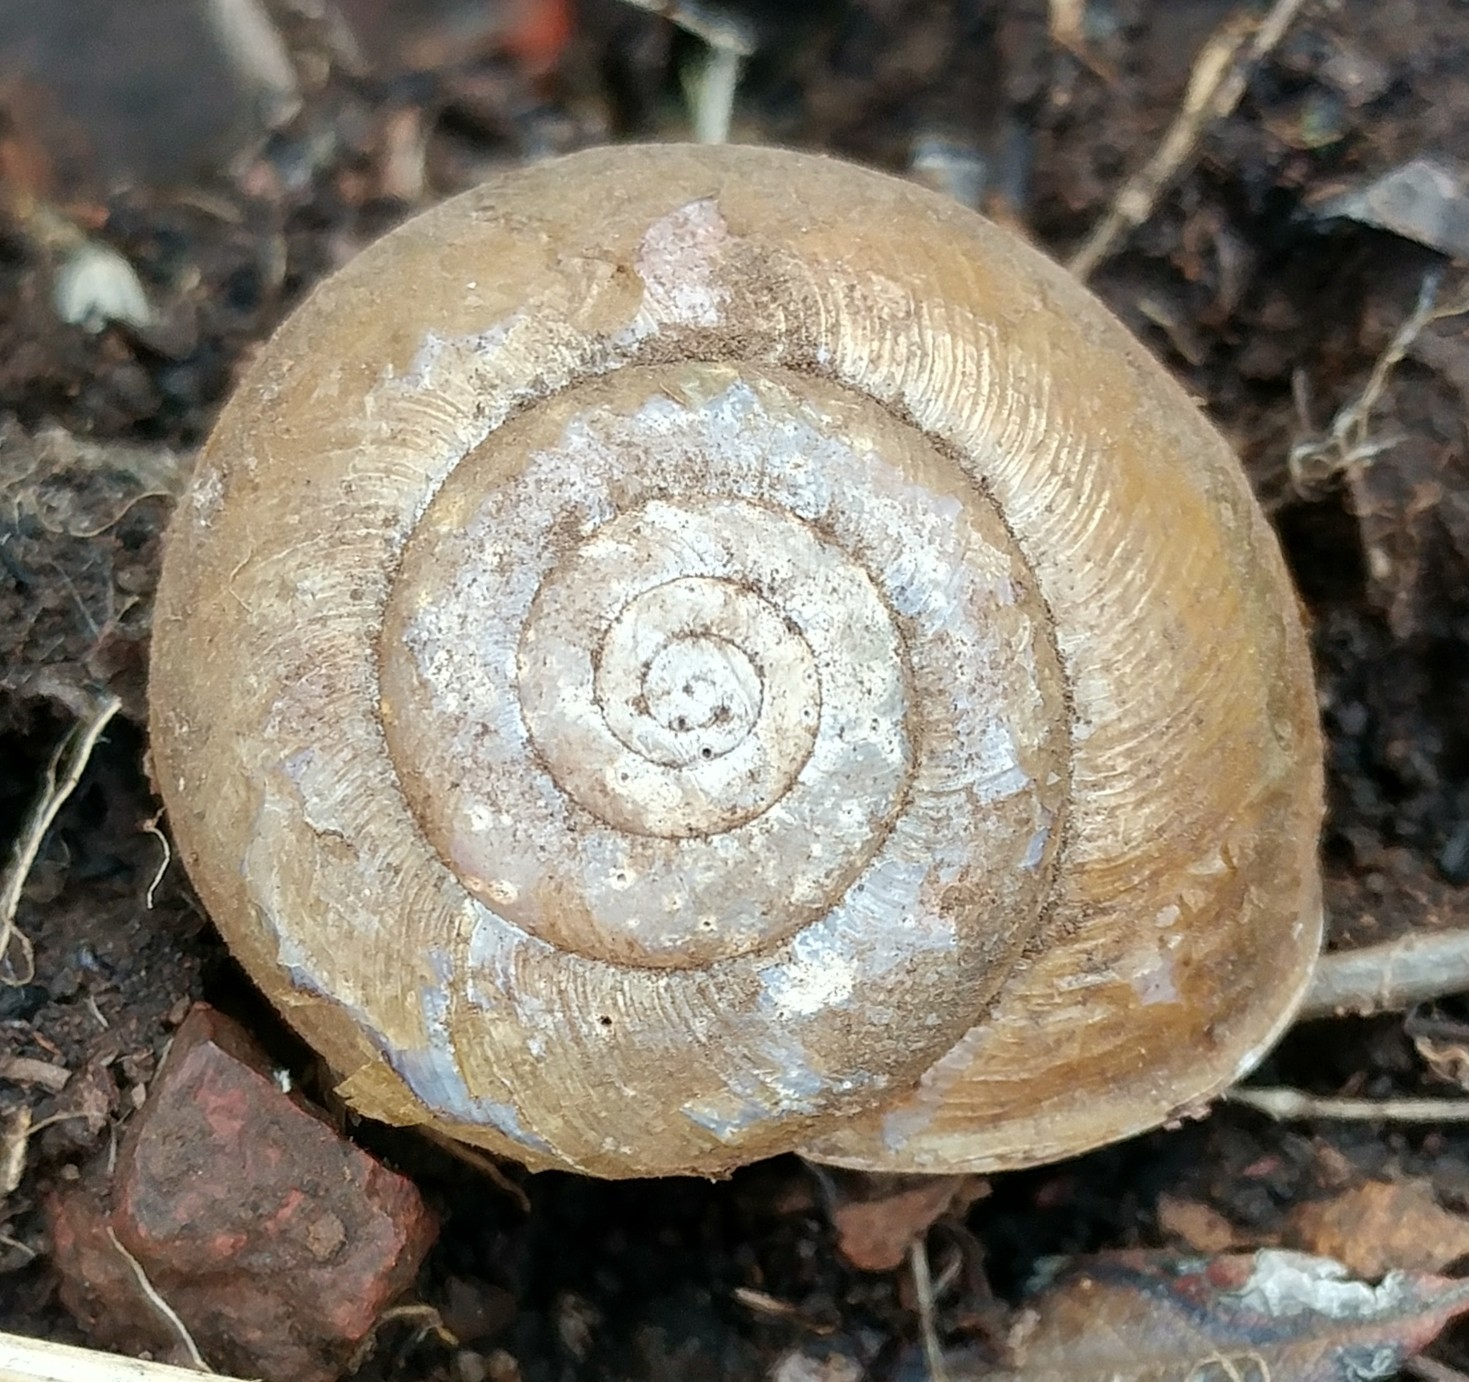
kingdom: Animalia
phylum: Mollusca
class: Gastropoda
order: Stylommatophora
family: Xanthonychidae
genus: Helminthoglypta
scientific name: Helminthoglypta tudiculata
